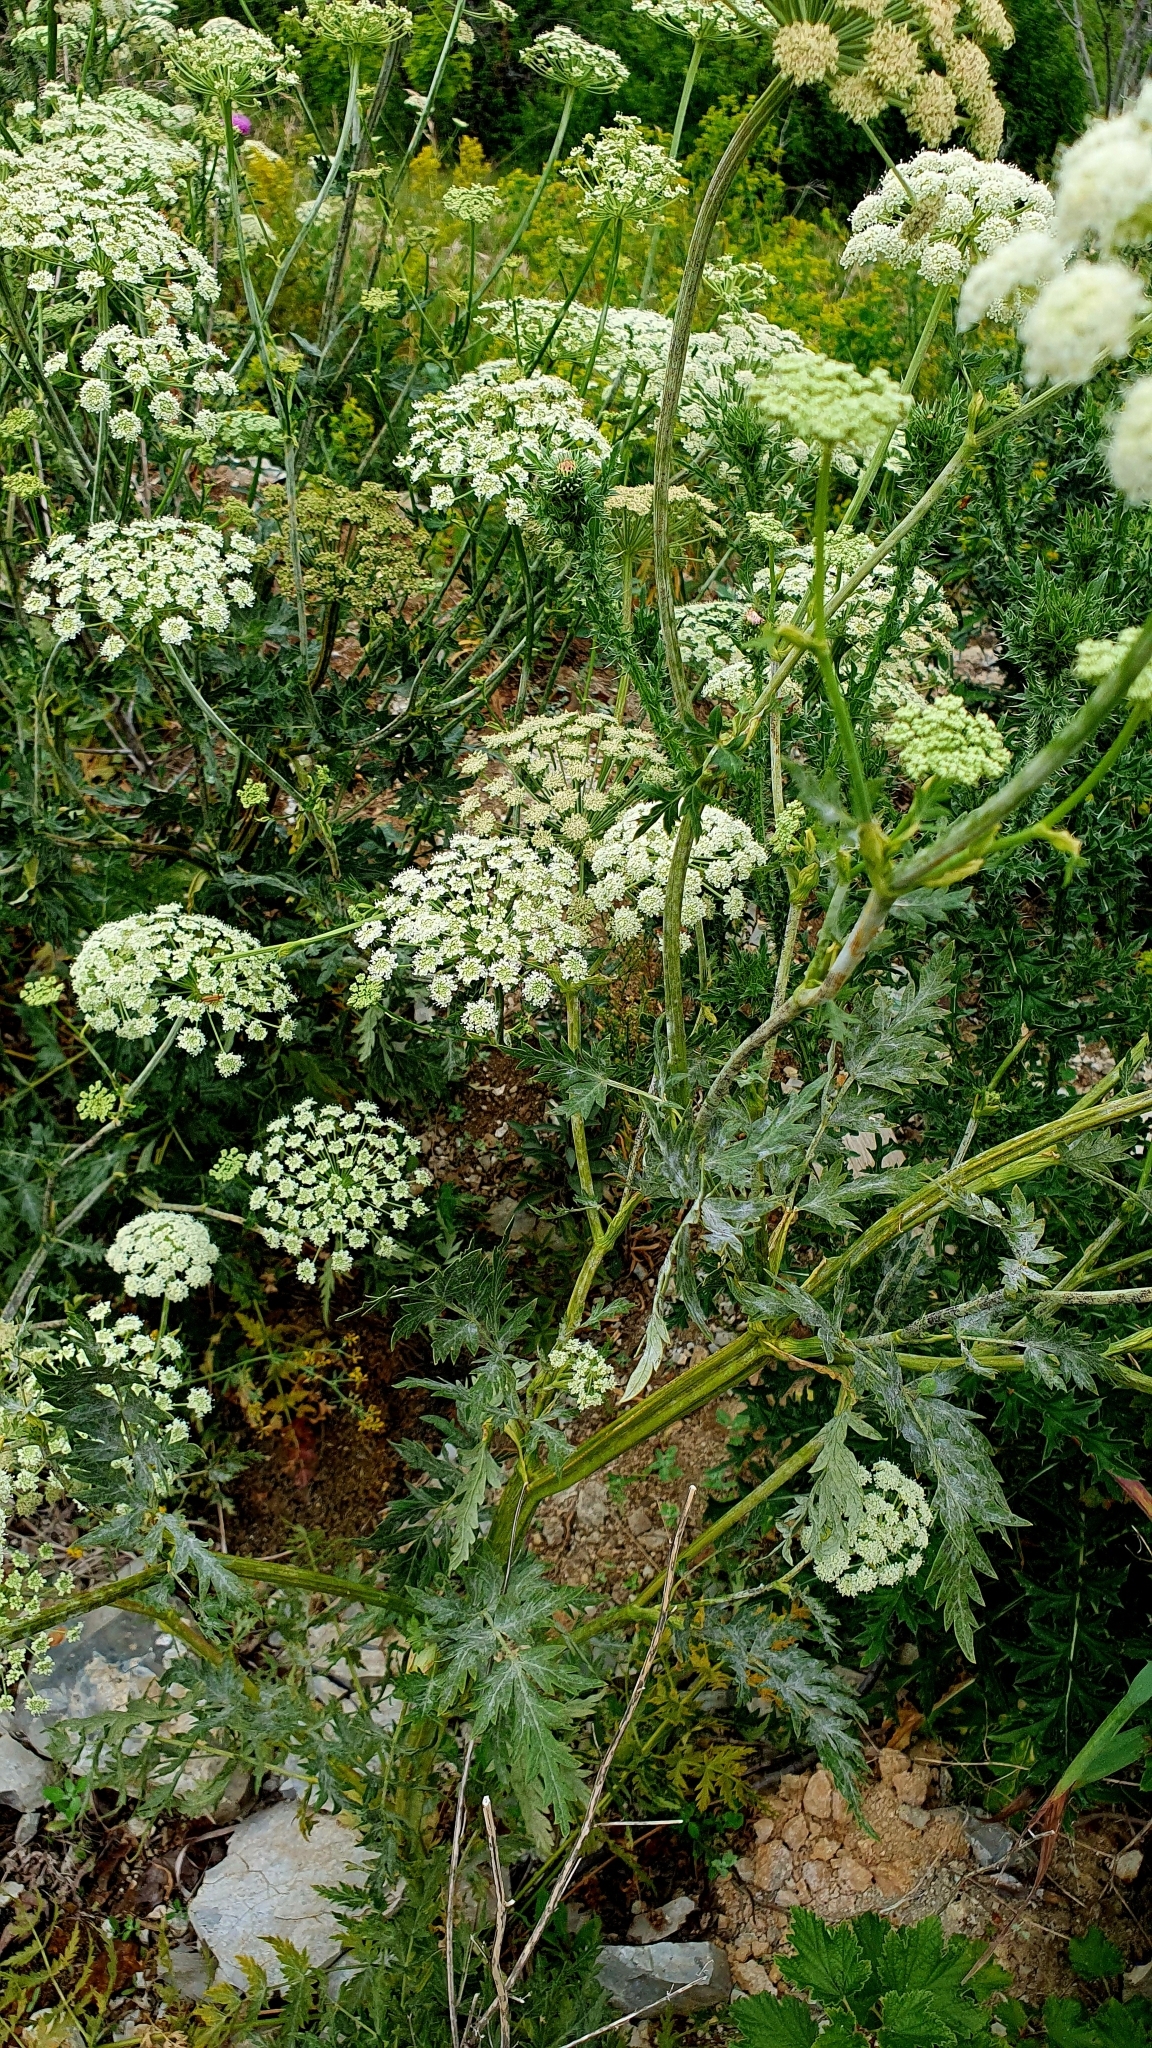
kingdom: Plantae
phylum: Tracheophyta
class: Magnoliopsida
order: Apiales
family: Apiaceae
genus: Seseli
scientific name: Seseli libanotis
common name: Mooncarrot
